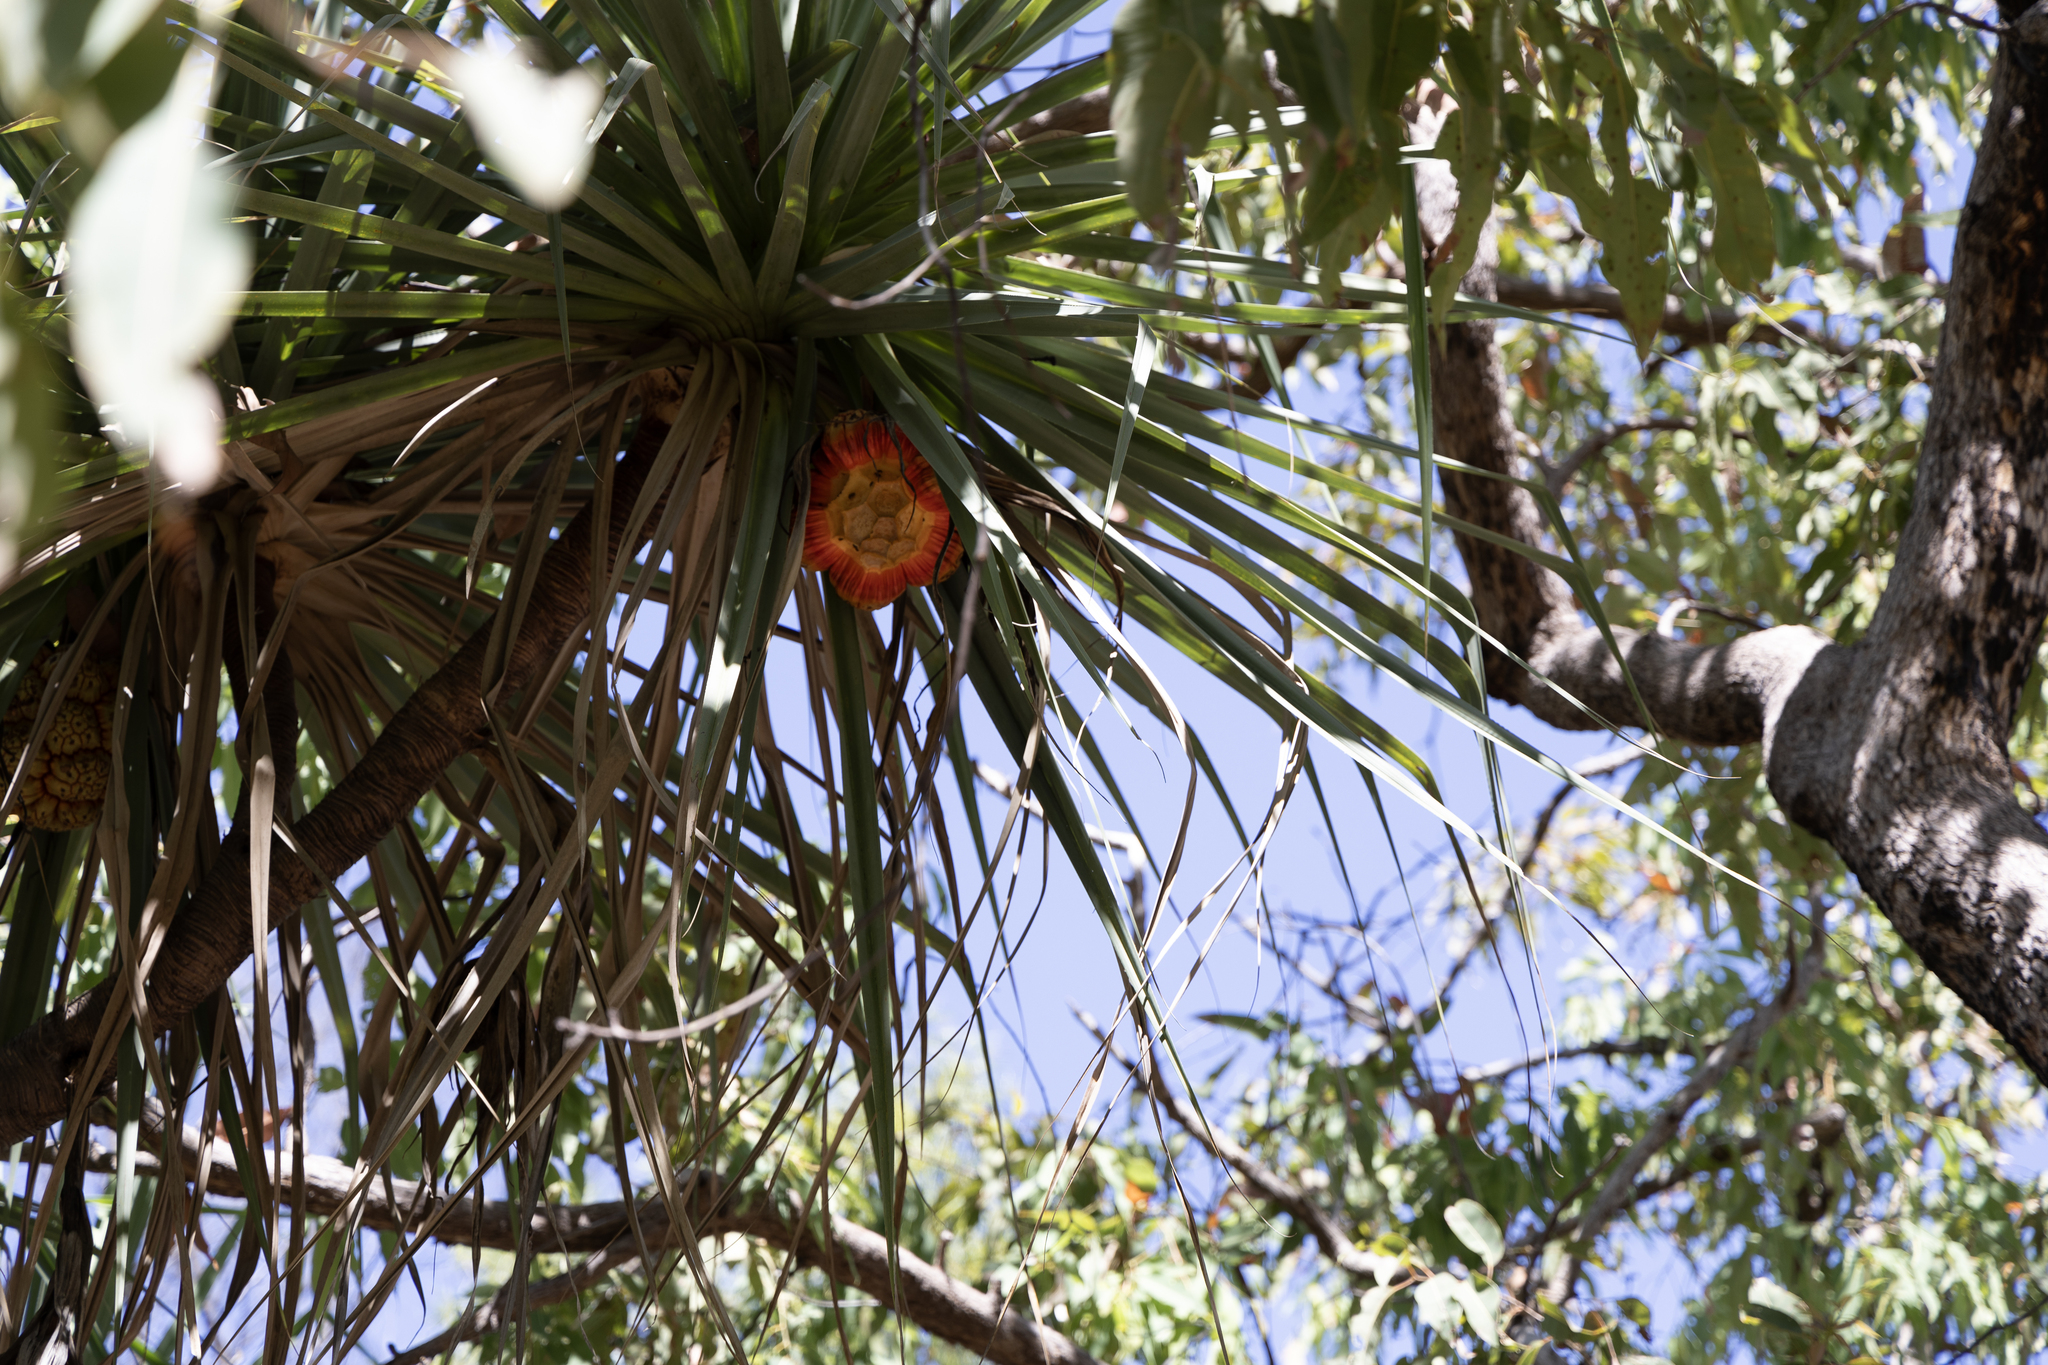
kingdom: Plantae
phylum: Tracheophyta
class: Liliopsida
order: Pandanales
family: Pandanaceae
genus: Pandanus
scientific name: Pandanus spiralis
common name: Screw-pine
